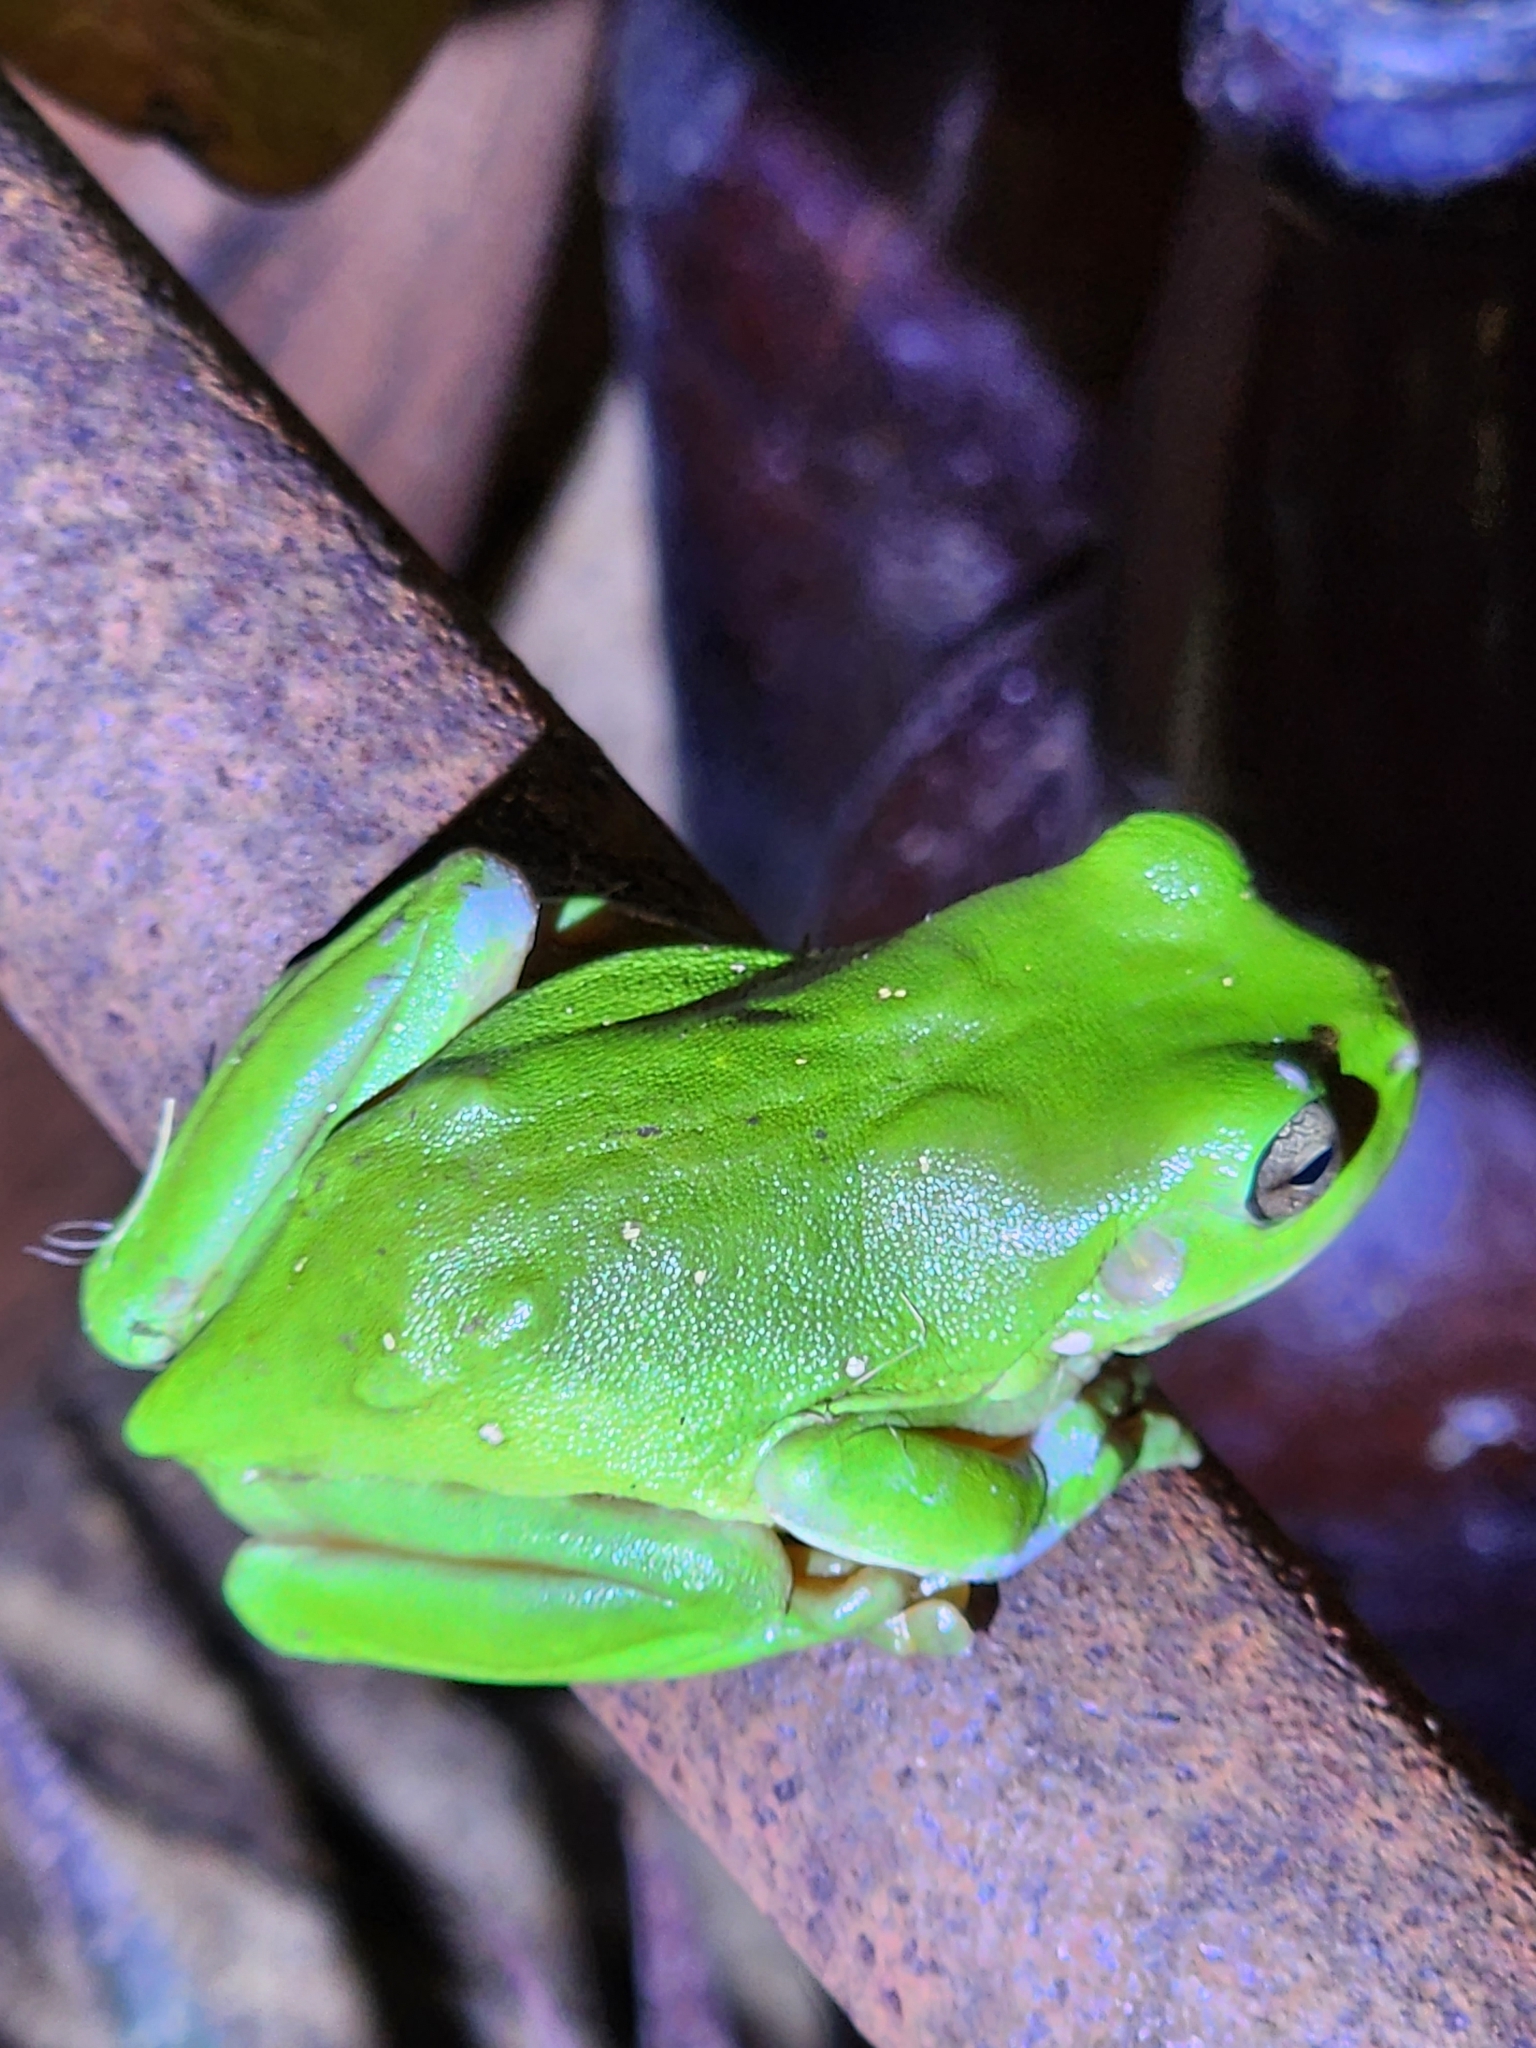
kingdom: Animalia
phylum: Chordata
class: Amphibia
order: Anura
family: Pelodryadidae
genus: Ranoidea
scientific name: Ranoidea caerulea
